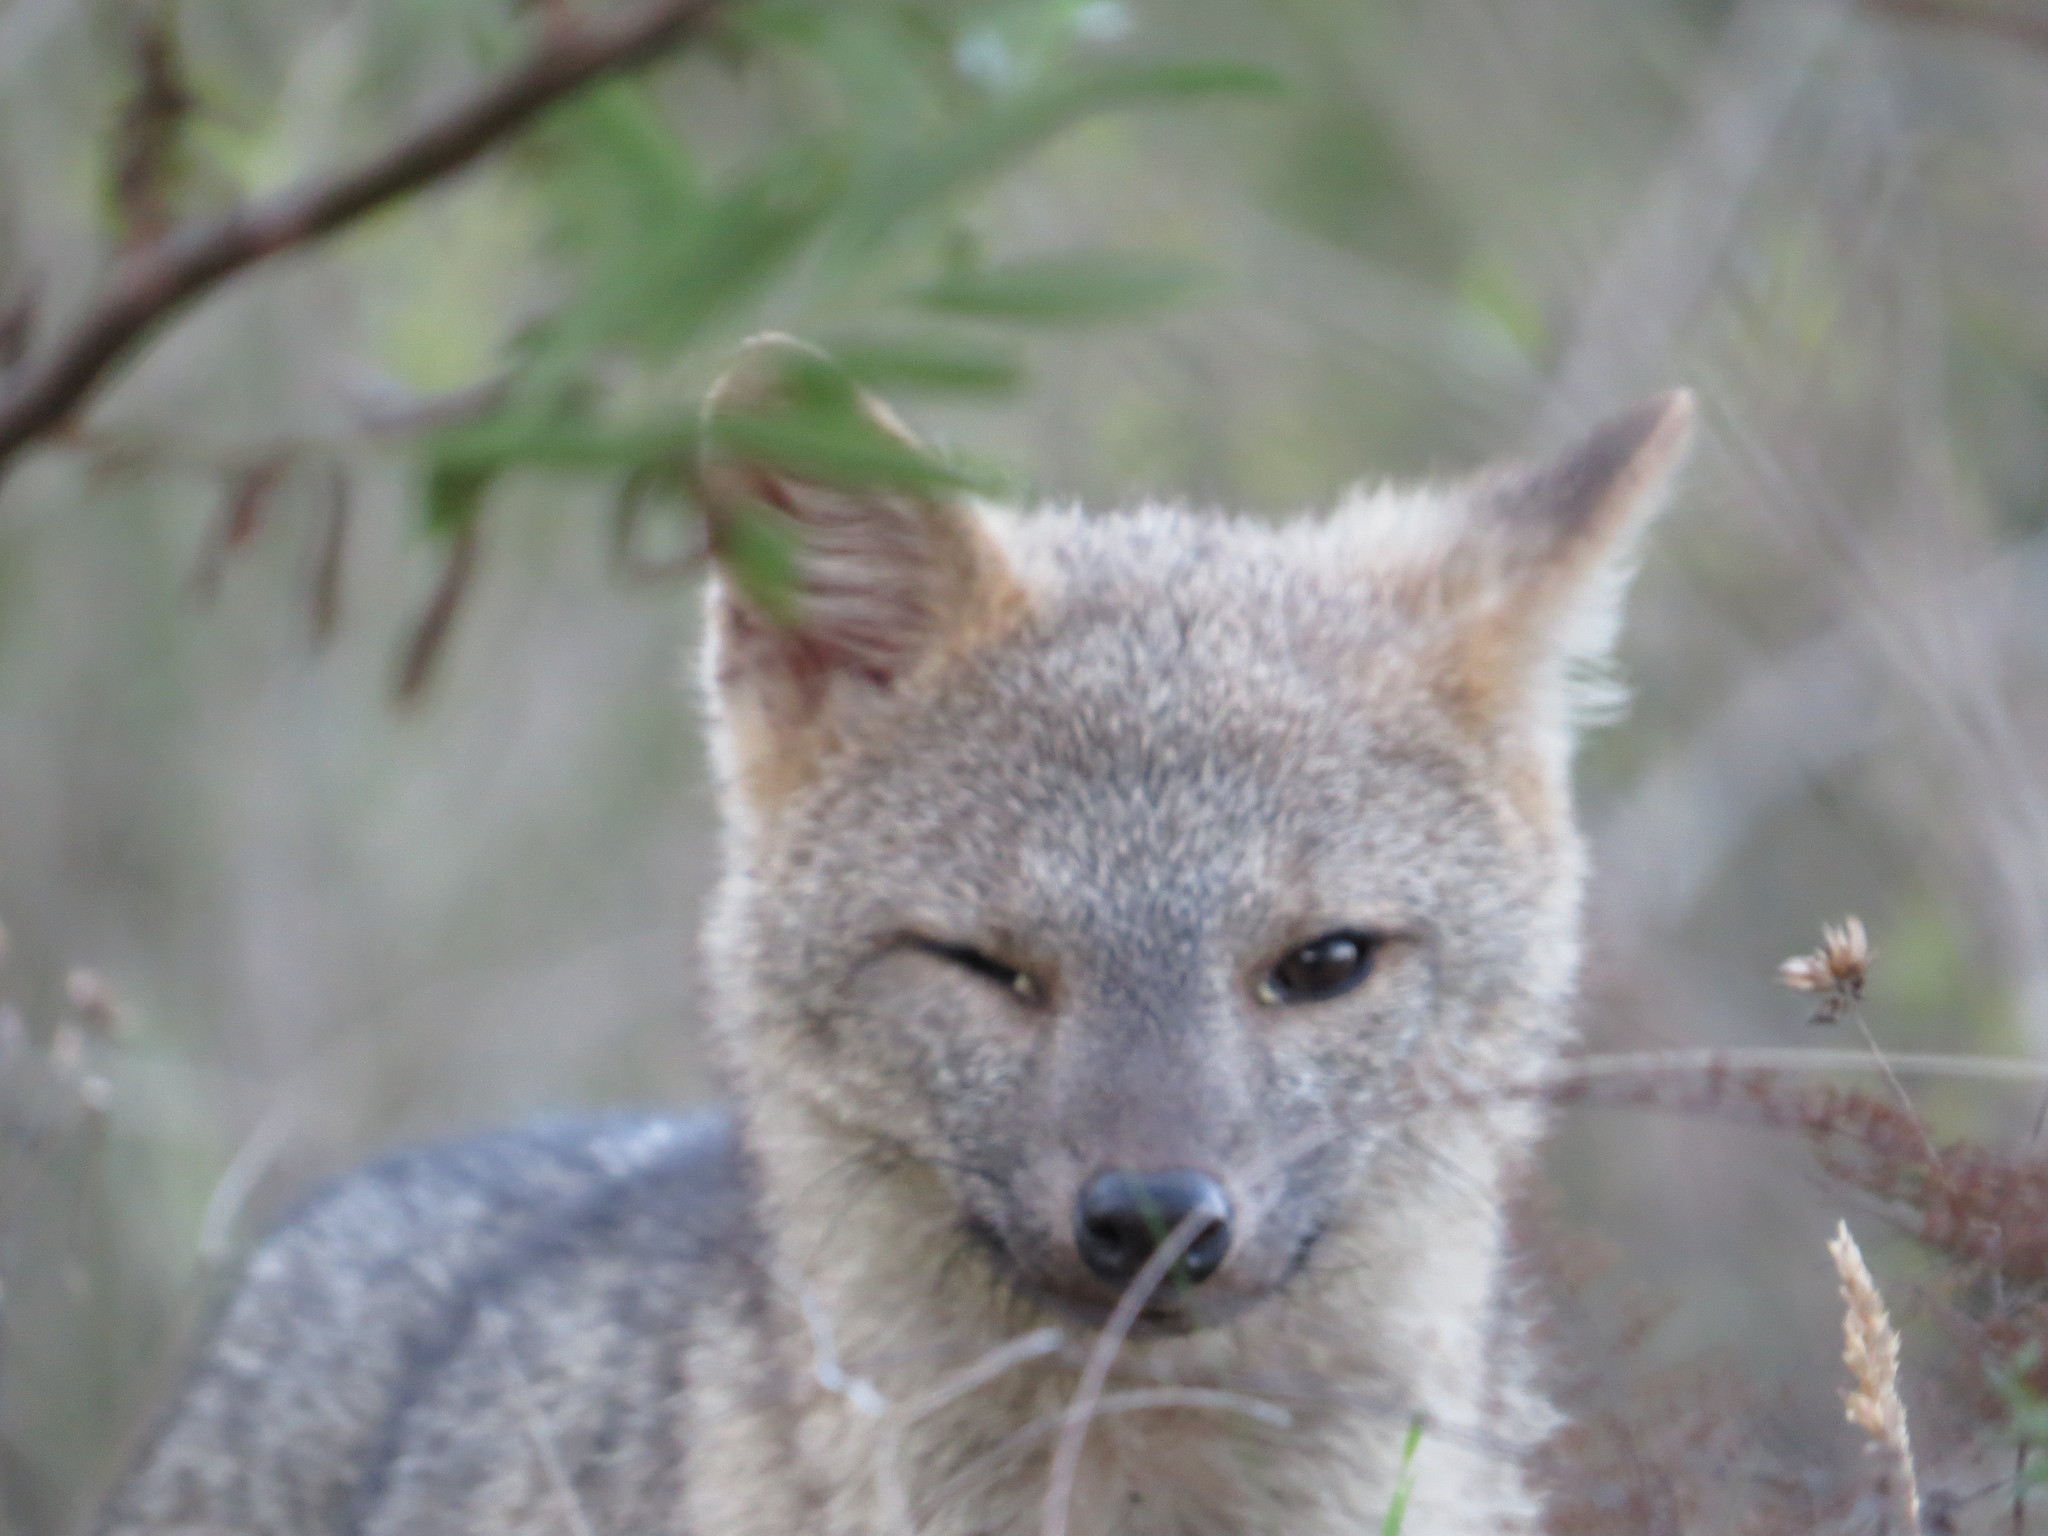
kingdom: Animalia
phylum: Chordata
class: Mammalia
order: Carnivora
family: Canidae
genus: Cerdocyon
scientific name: Cerdocyon thous
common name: Crab-eating fox
